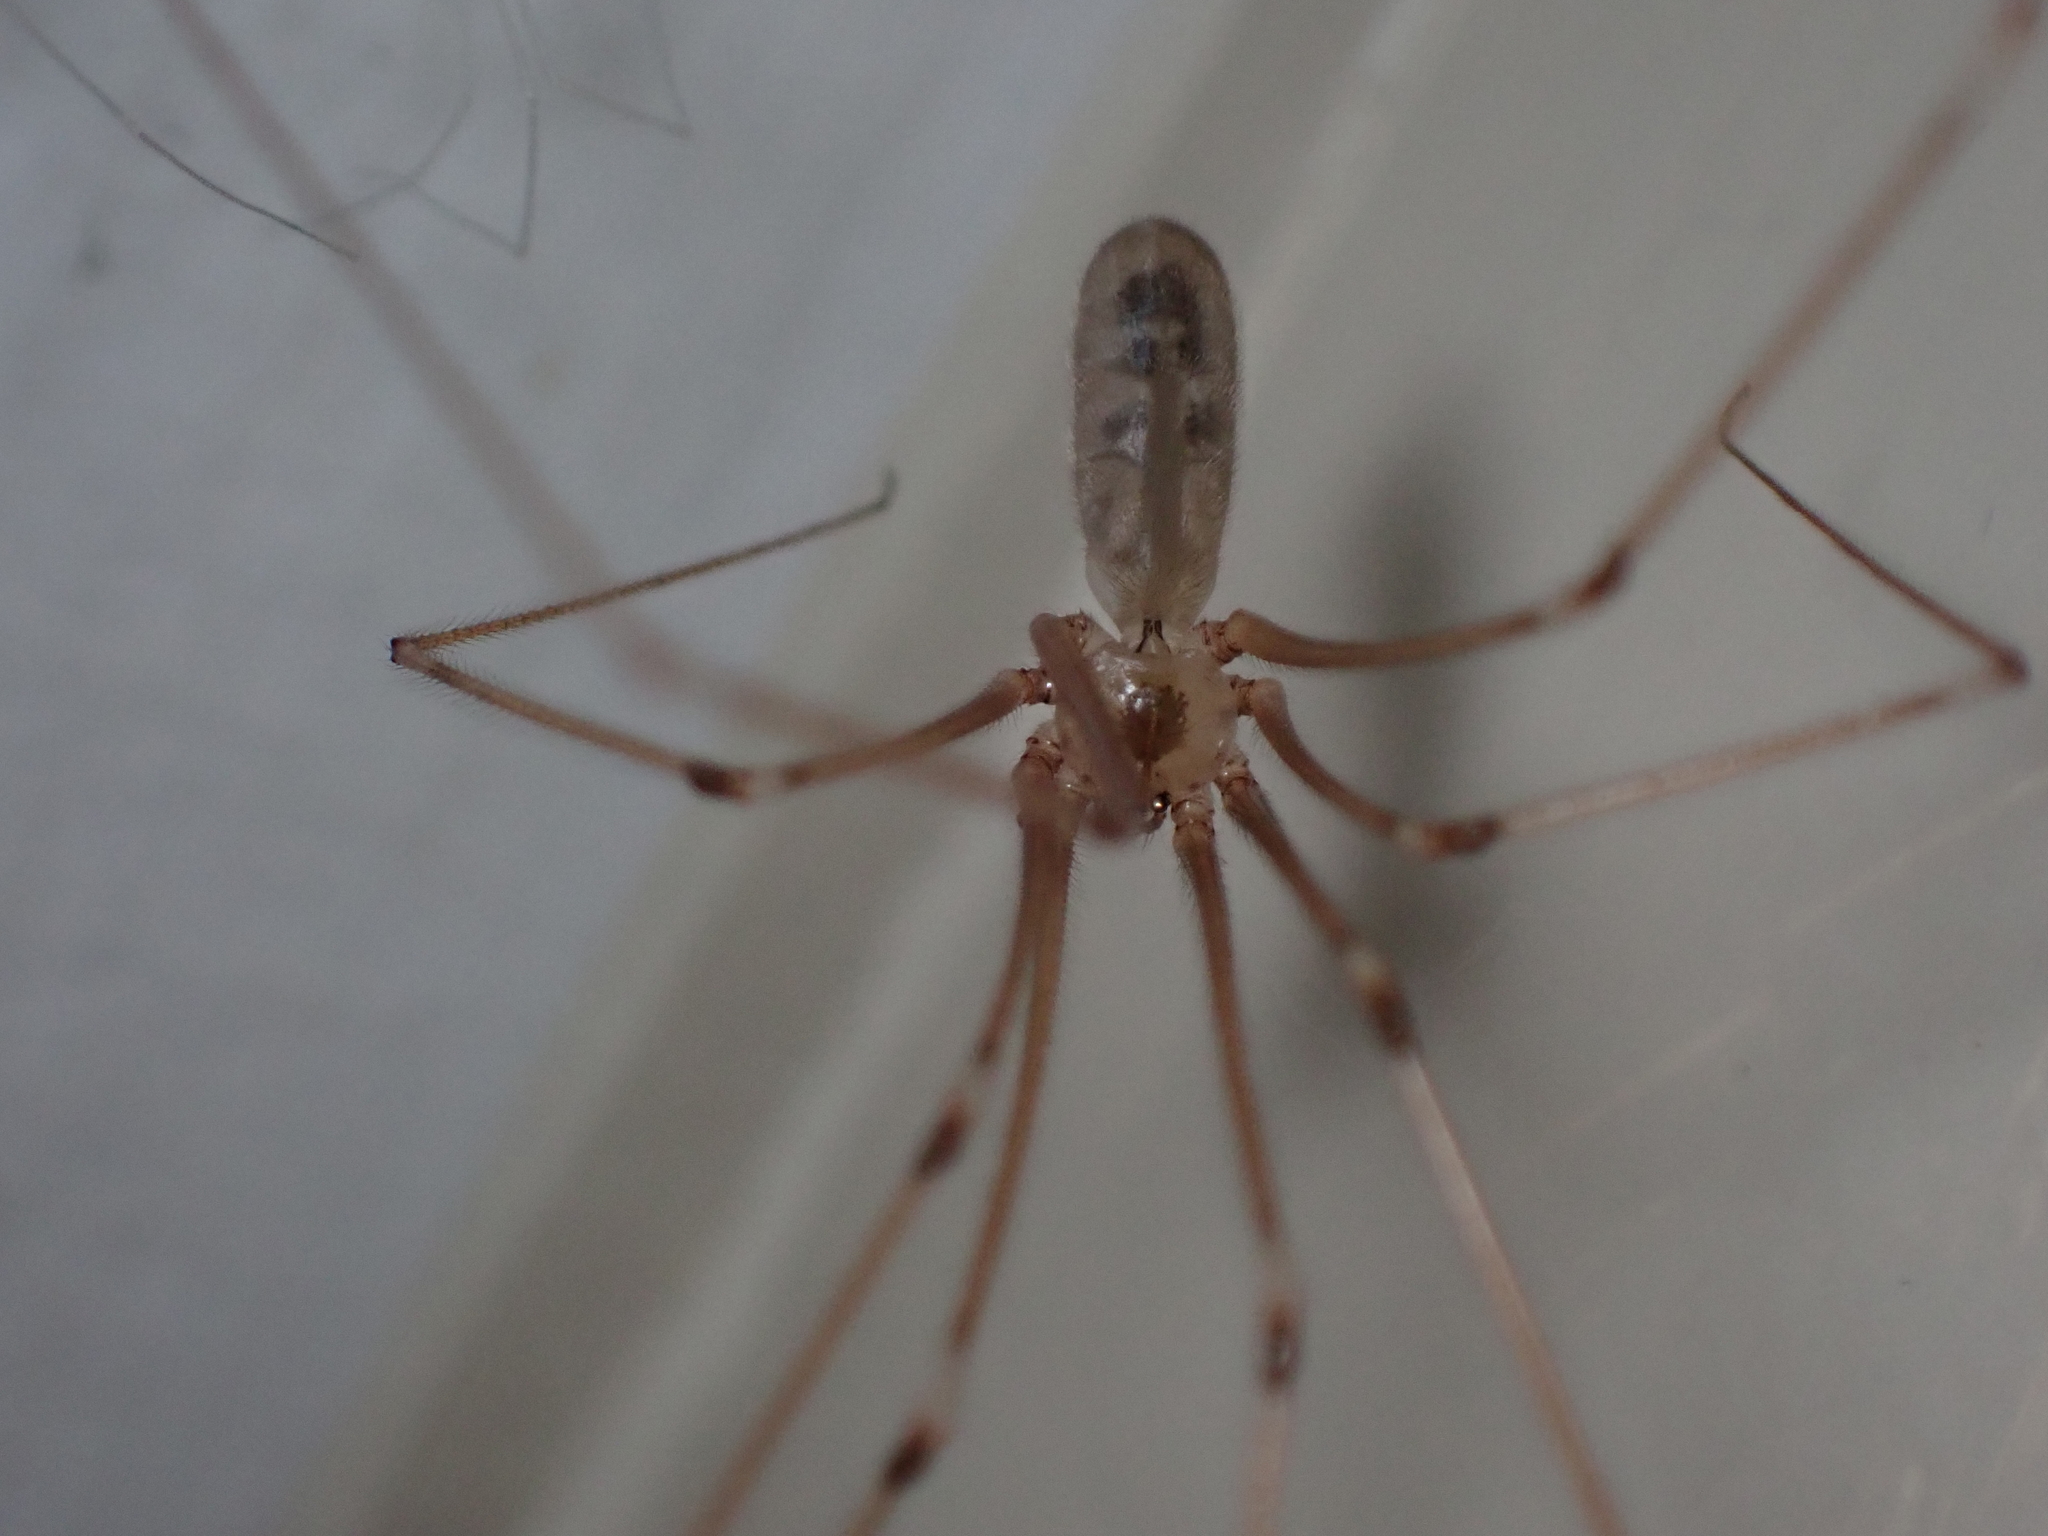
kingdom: Animalia
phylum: Arthropoda
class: Arachnida
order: Araneae
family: Pholcidae
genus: Pholcus
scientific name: Pholcus phalangioides
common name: Longbodied cellar spider
